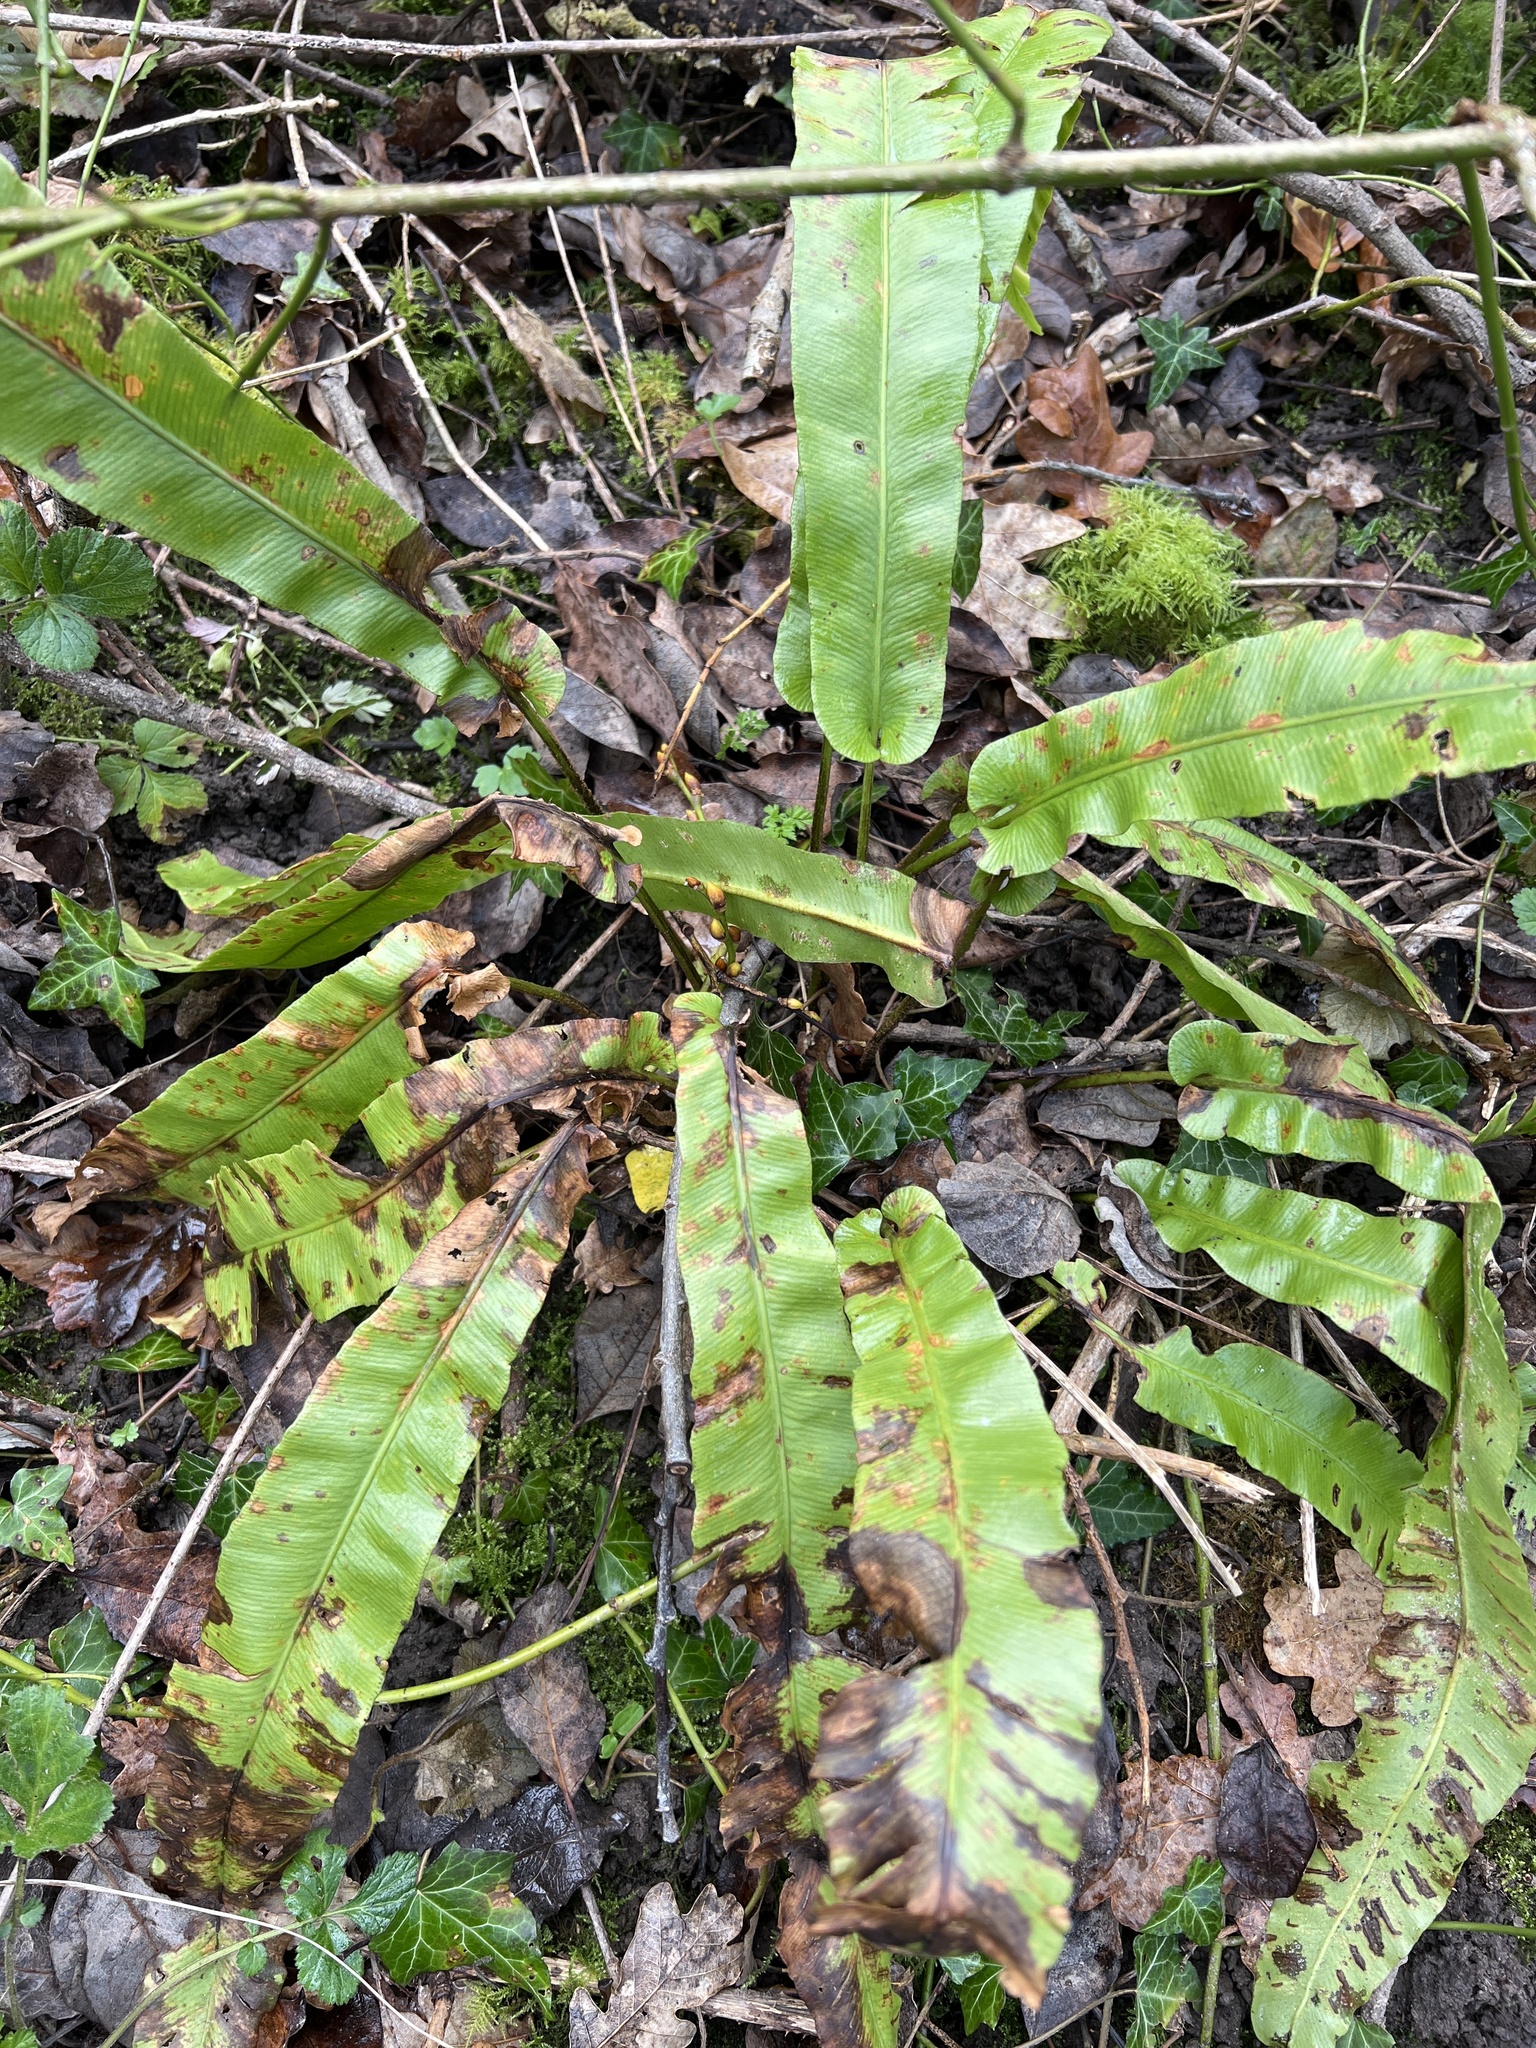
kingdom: Plantae
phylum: Tracheophyta
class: Polypodiopsida
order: Polypodiales
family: Aspleniaceae
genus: Asplenium
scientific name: Asplenium scolopendrium
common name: Hart's-tongue fern
